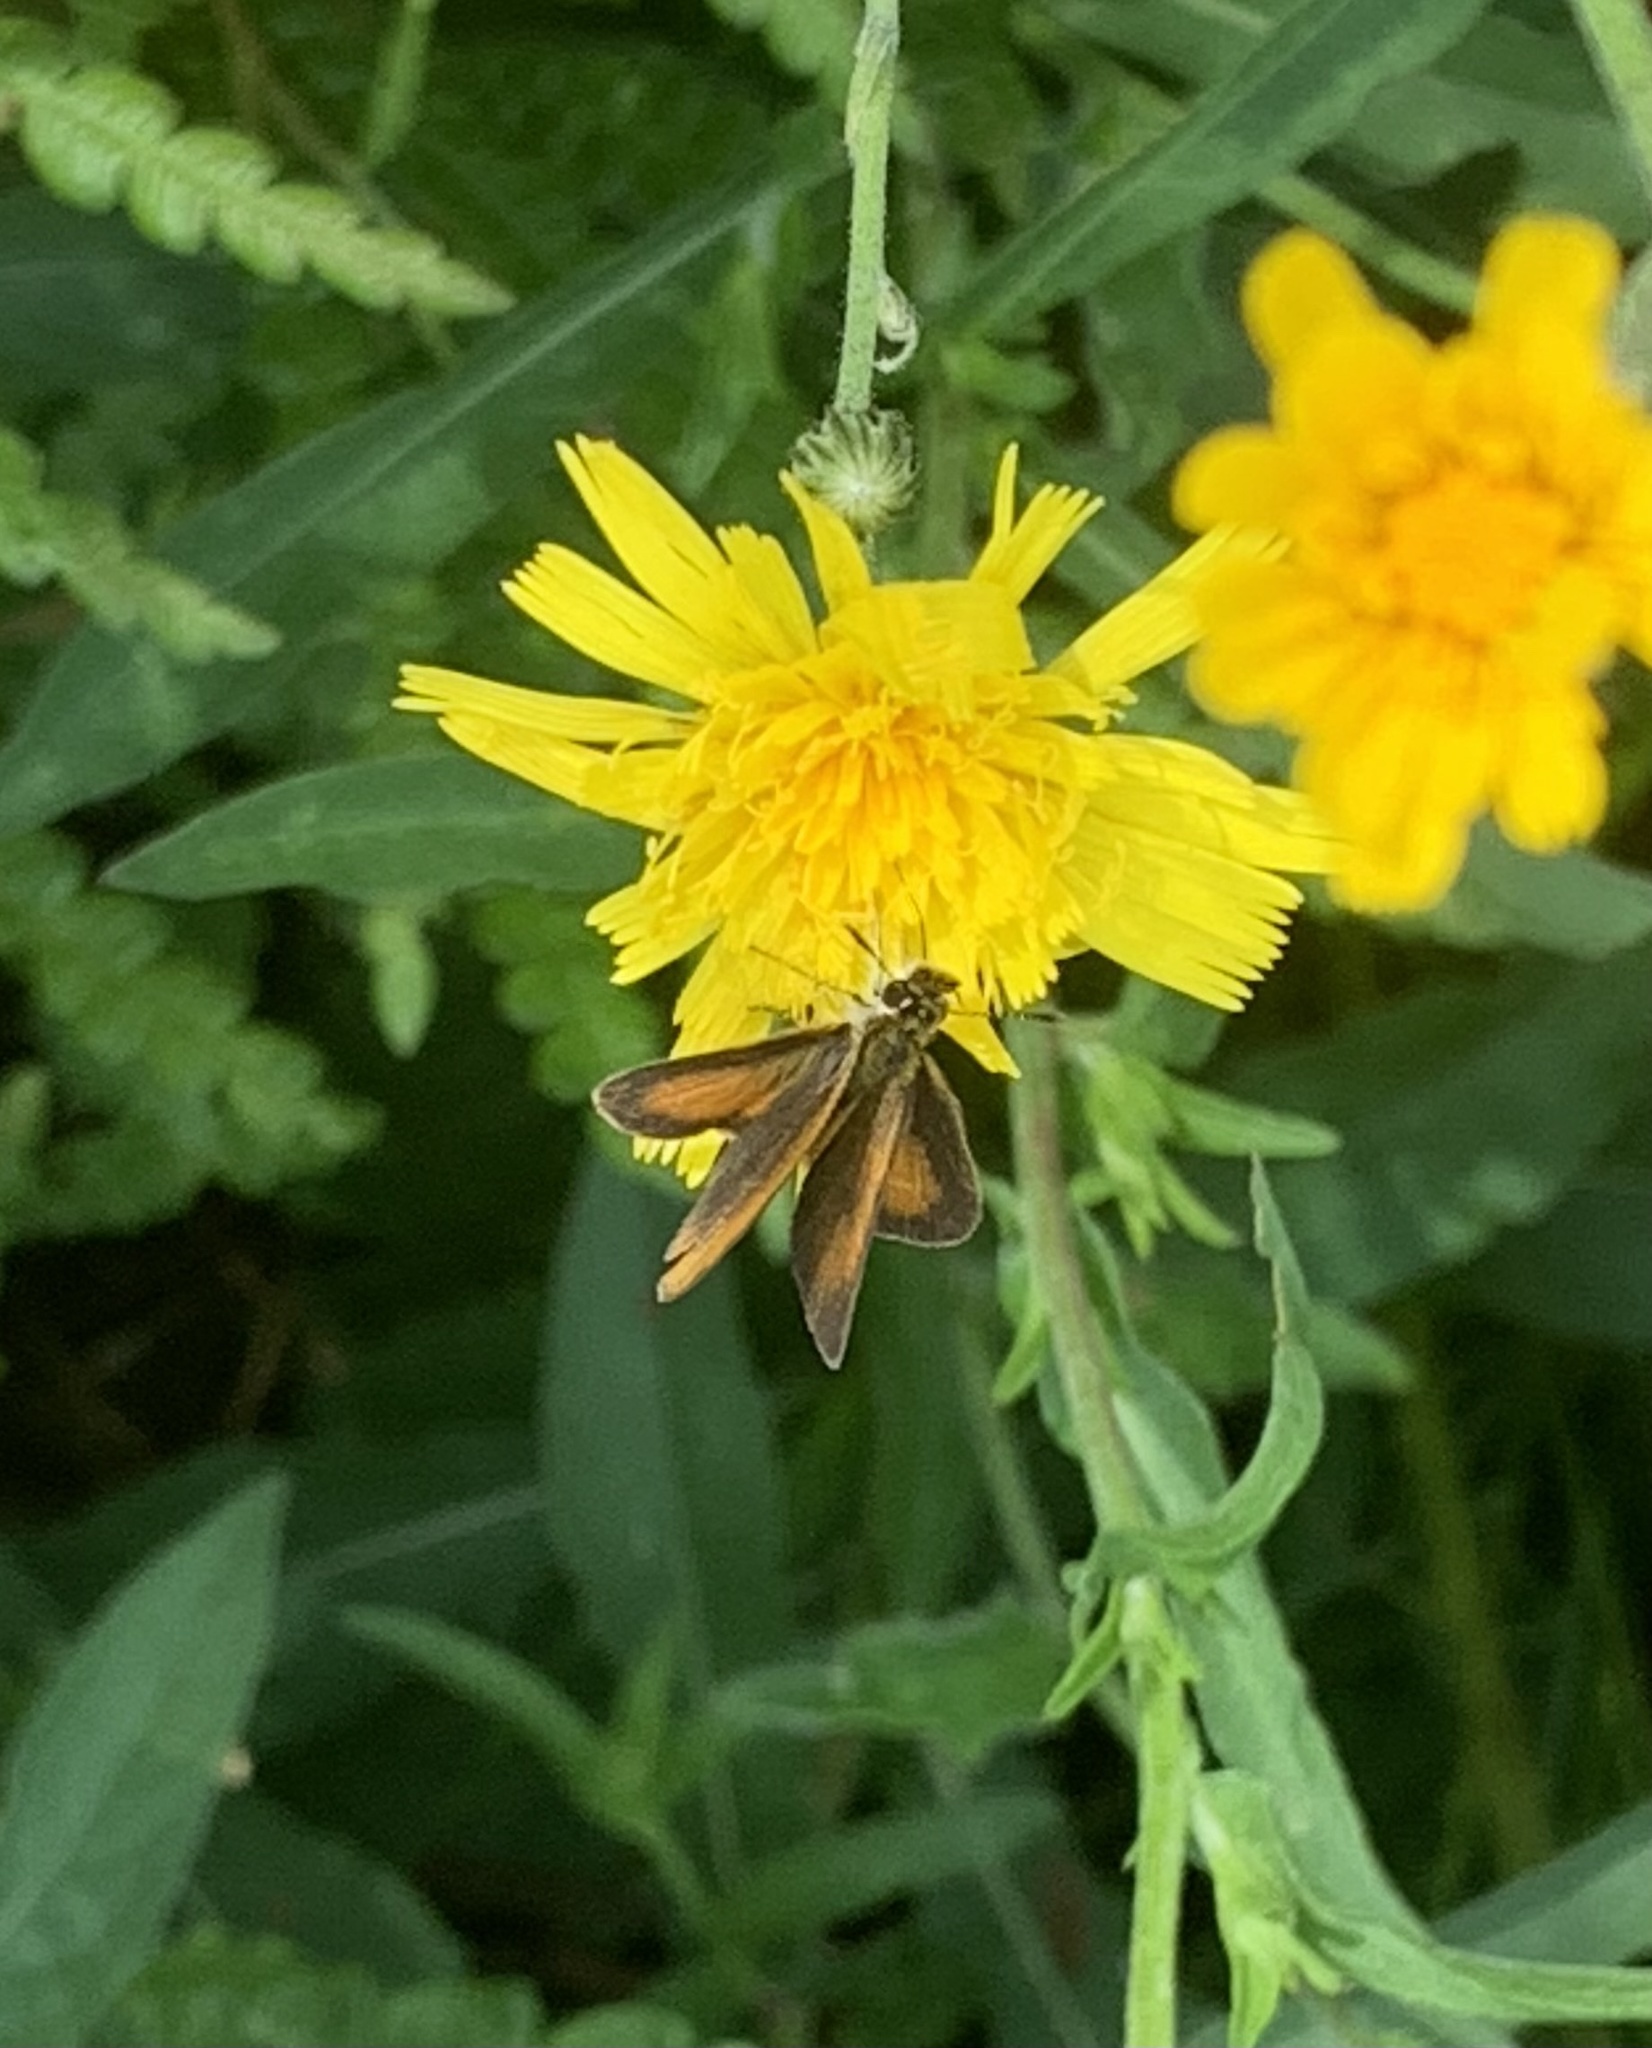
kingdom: Animalia
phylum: Arthropoda
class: Insecta
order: Lepidoptera
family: Hesperiidae
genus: Ancyloxypha
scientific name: Ancyloxypha numitor
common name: Least skipper
